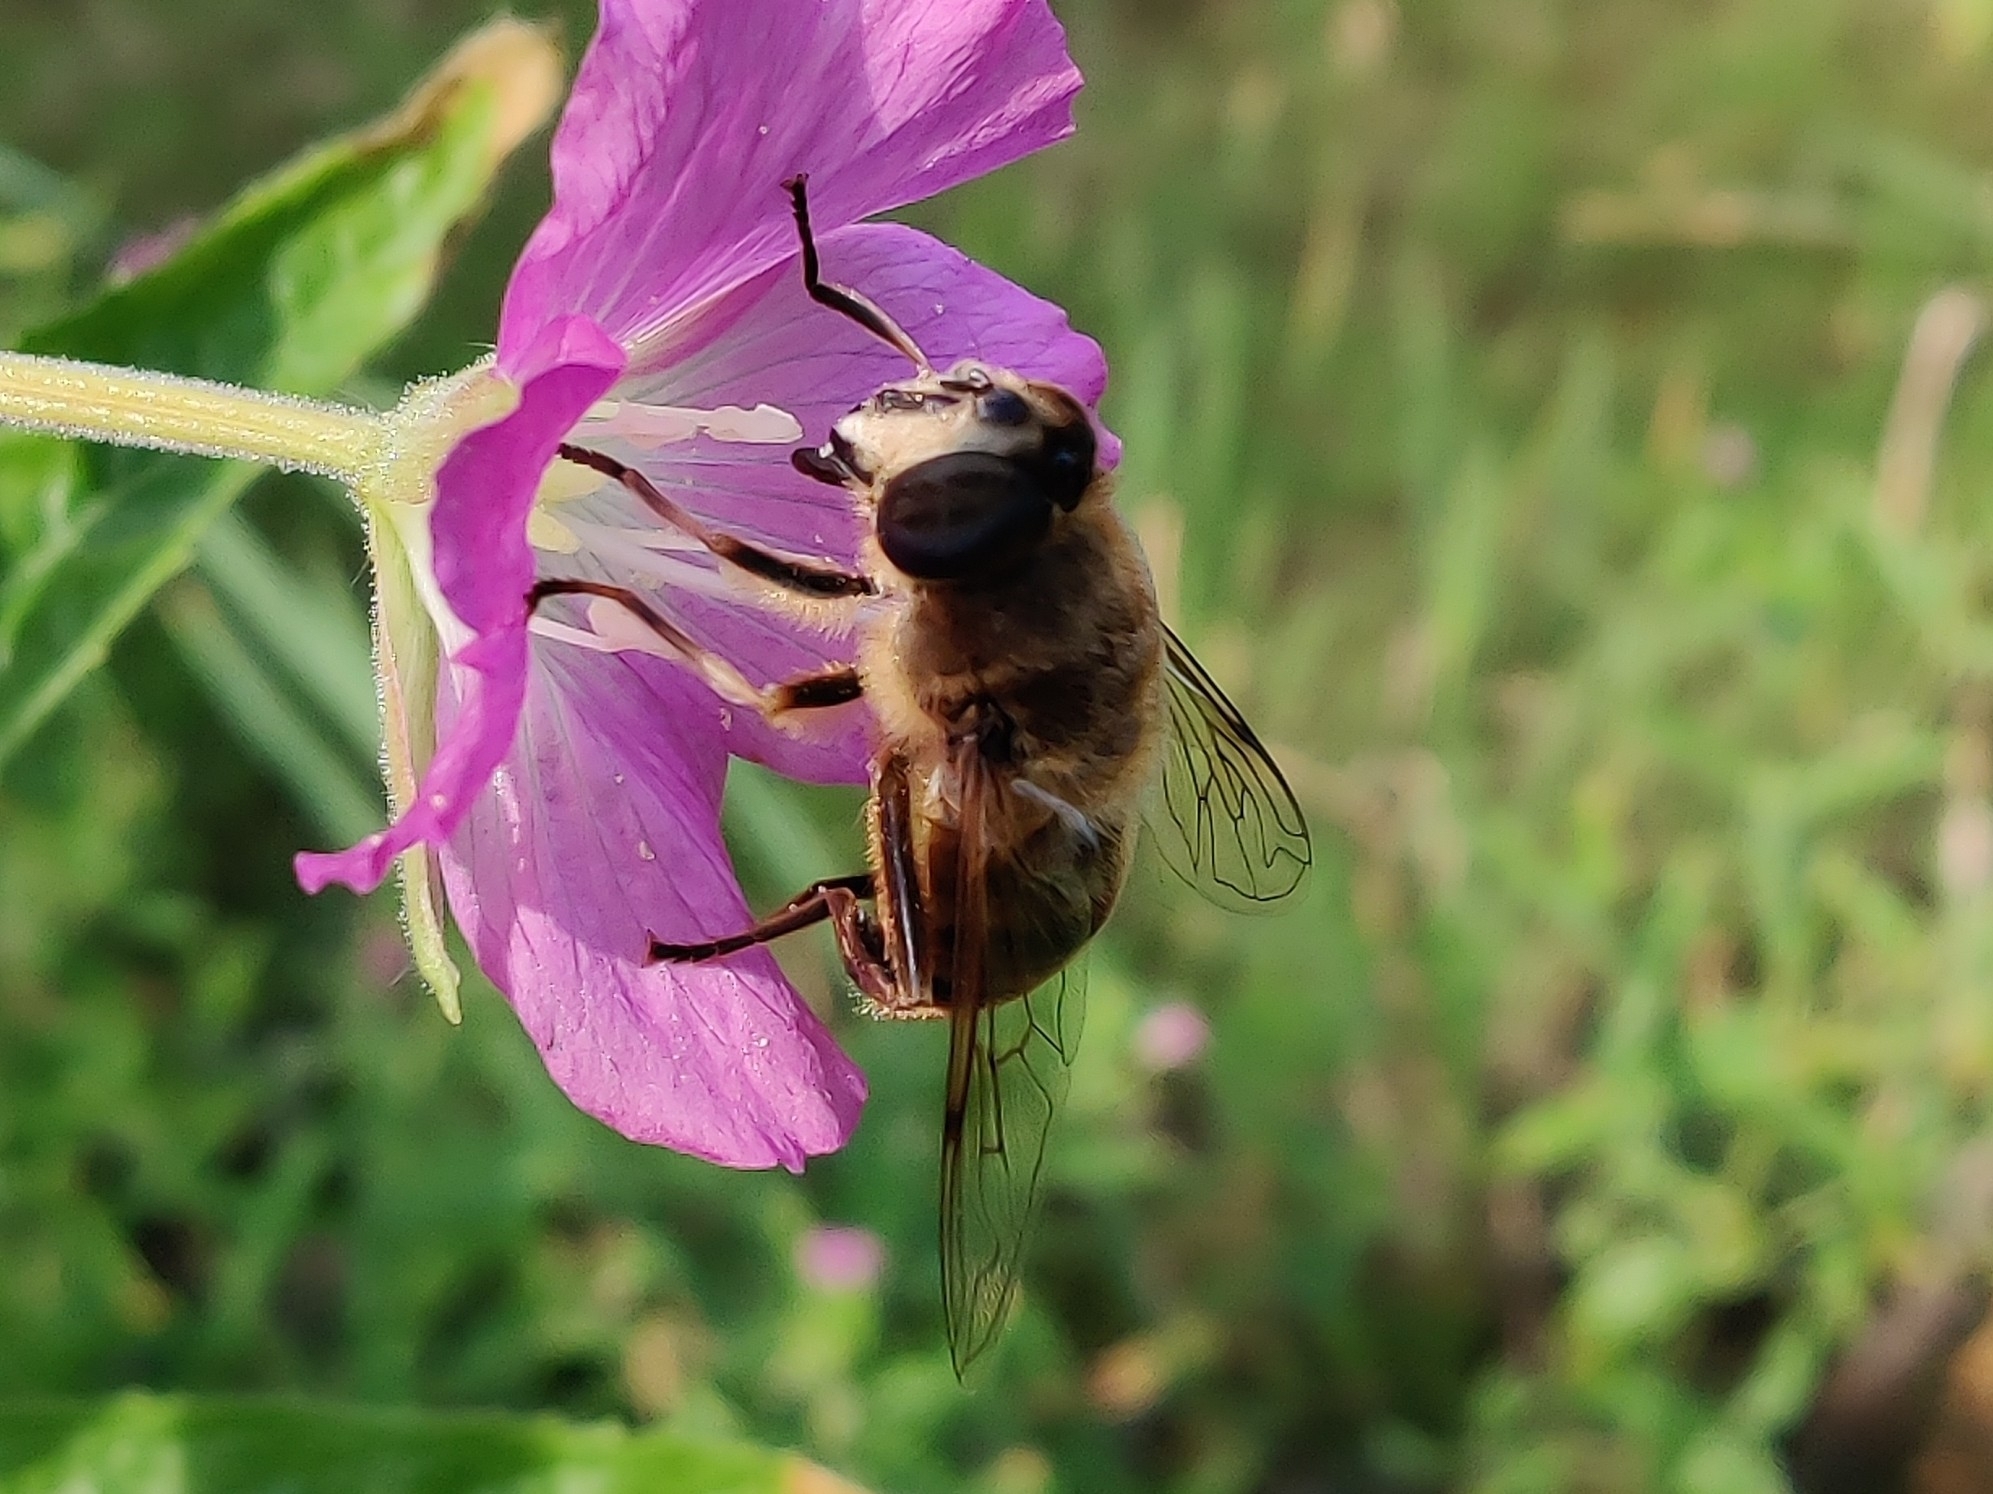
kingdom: Animalia
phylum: Arthropoda
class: Insecta
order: Diptera
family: Syrphidae
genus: Eristalis
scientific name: Eristalis tenax
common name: Drone fly
